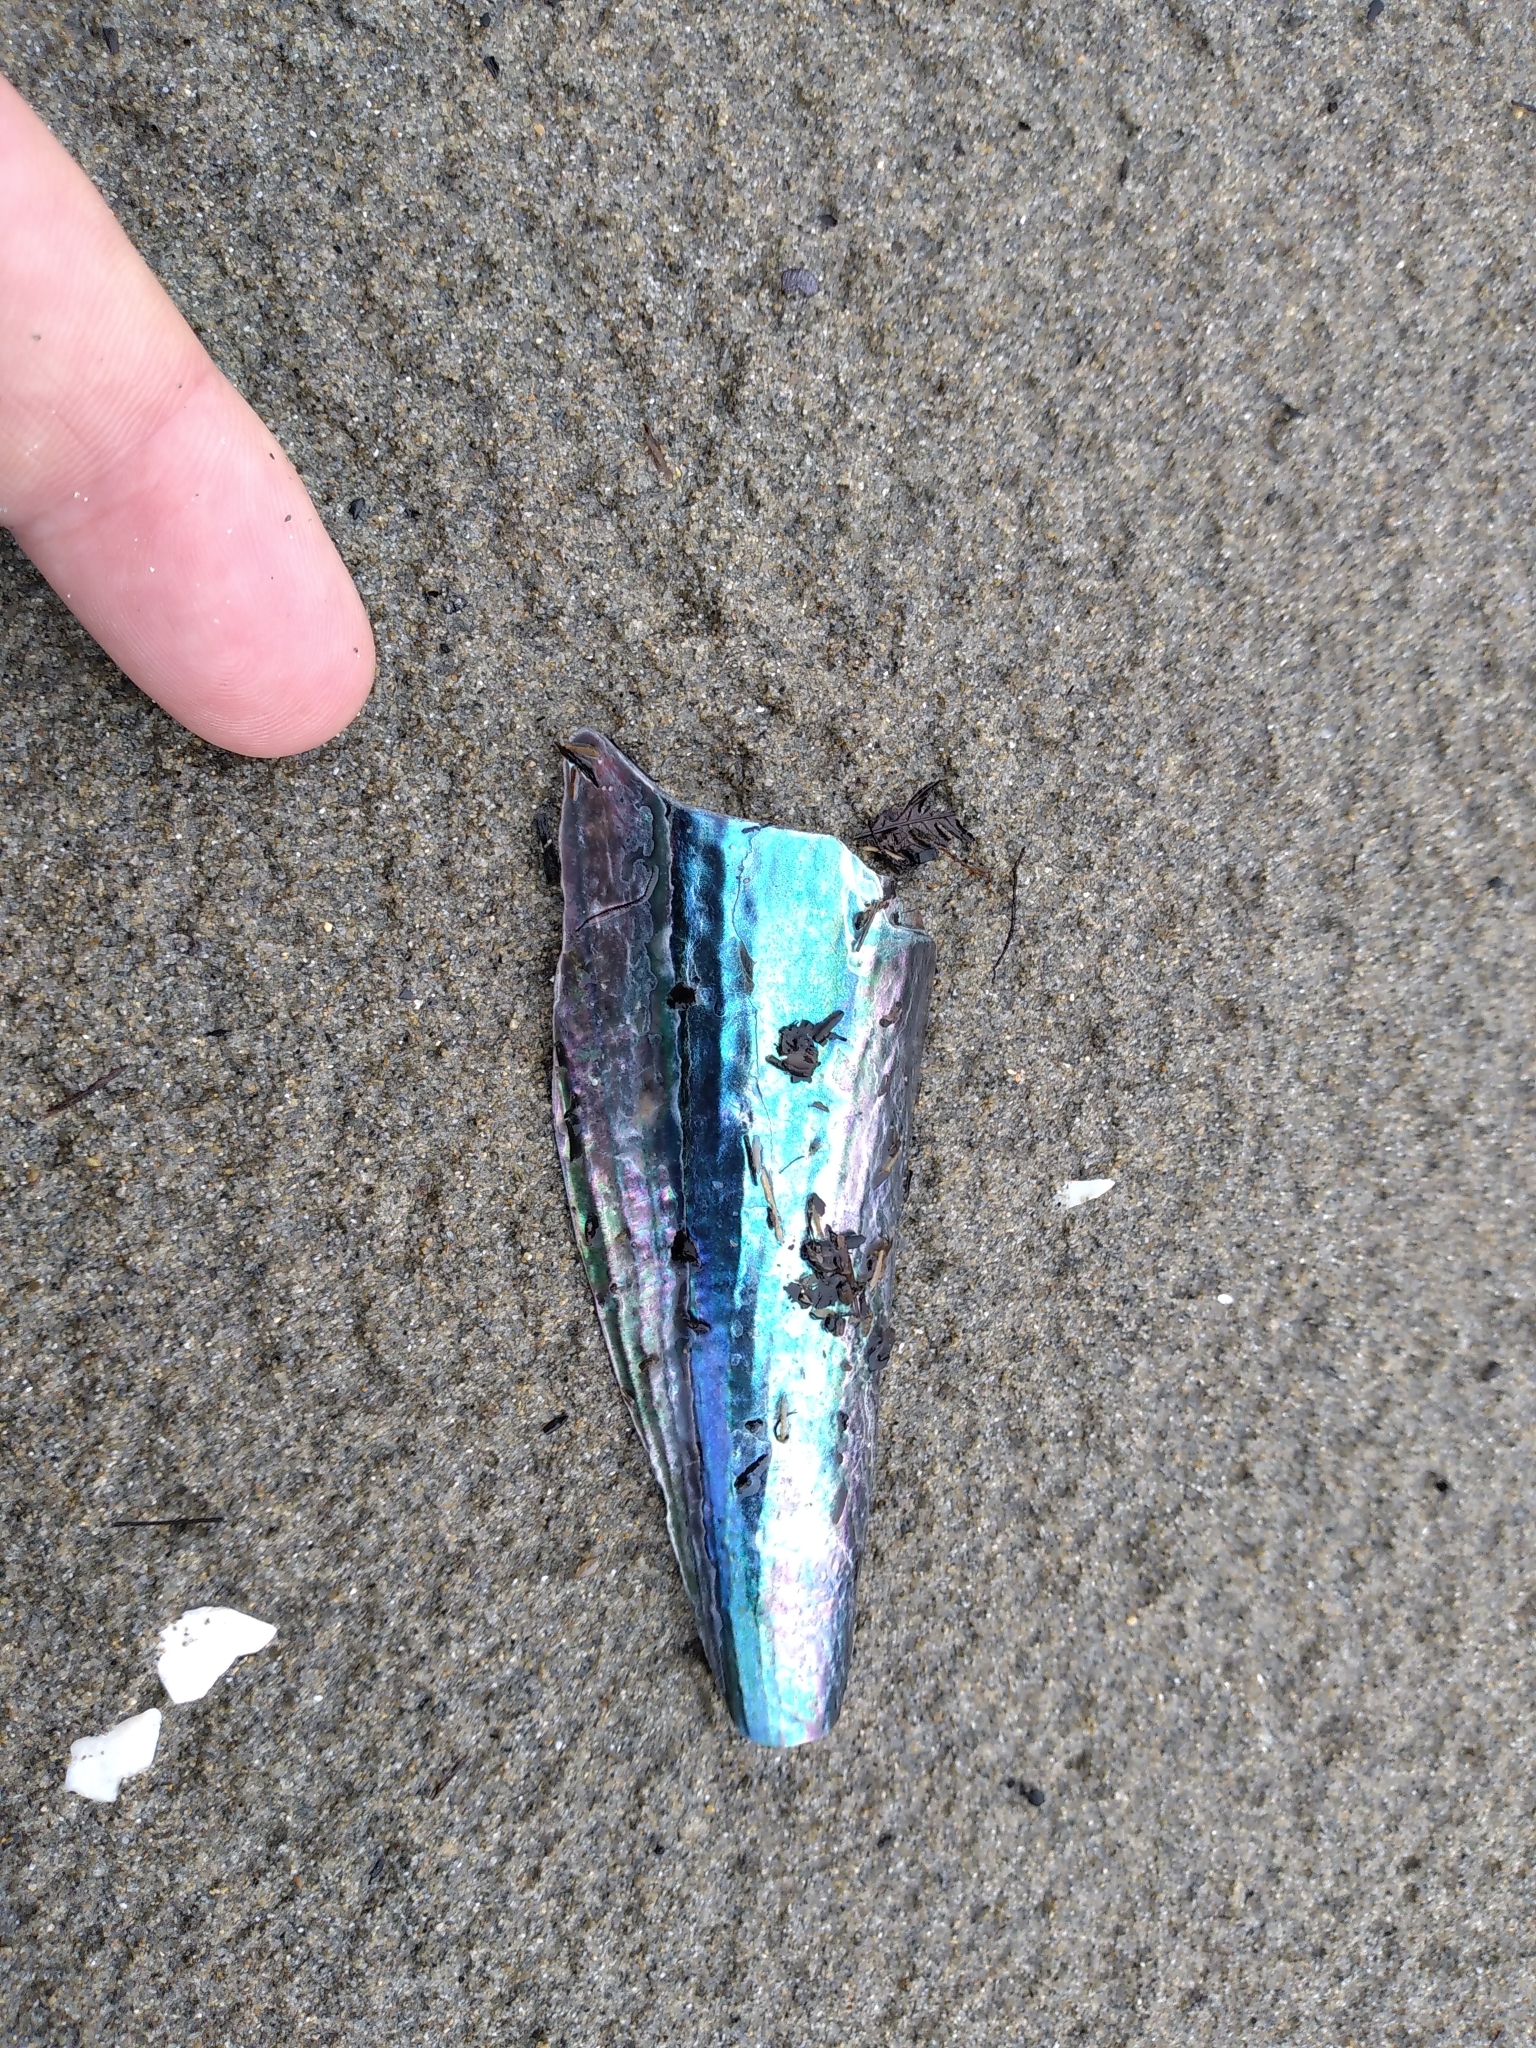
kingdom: Animalia
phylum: Mollusca
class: Bivalvia
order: Ostreida
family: Pinnidae
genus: Atrina
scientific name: Atrina zelandica
